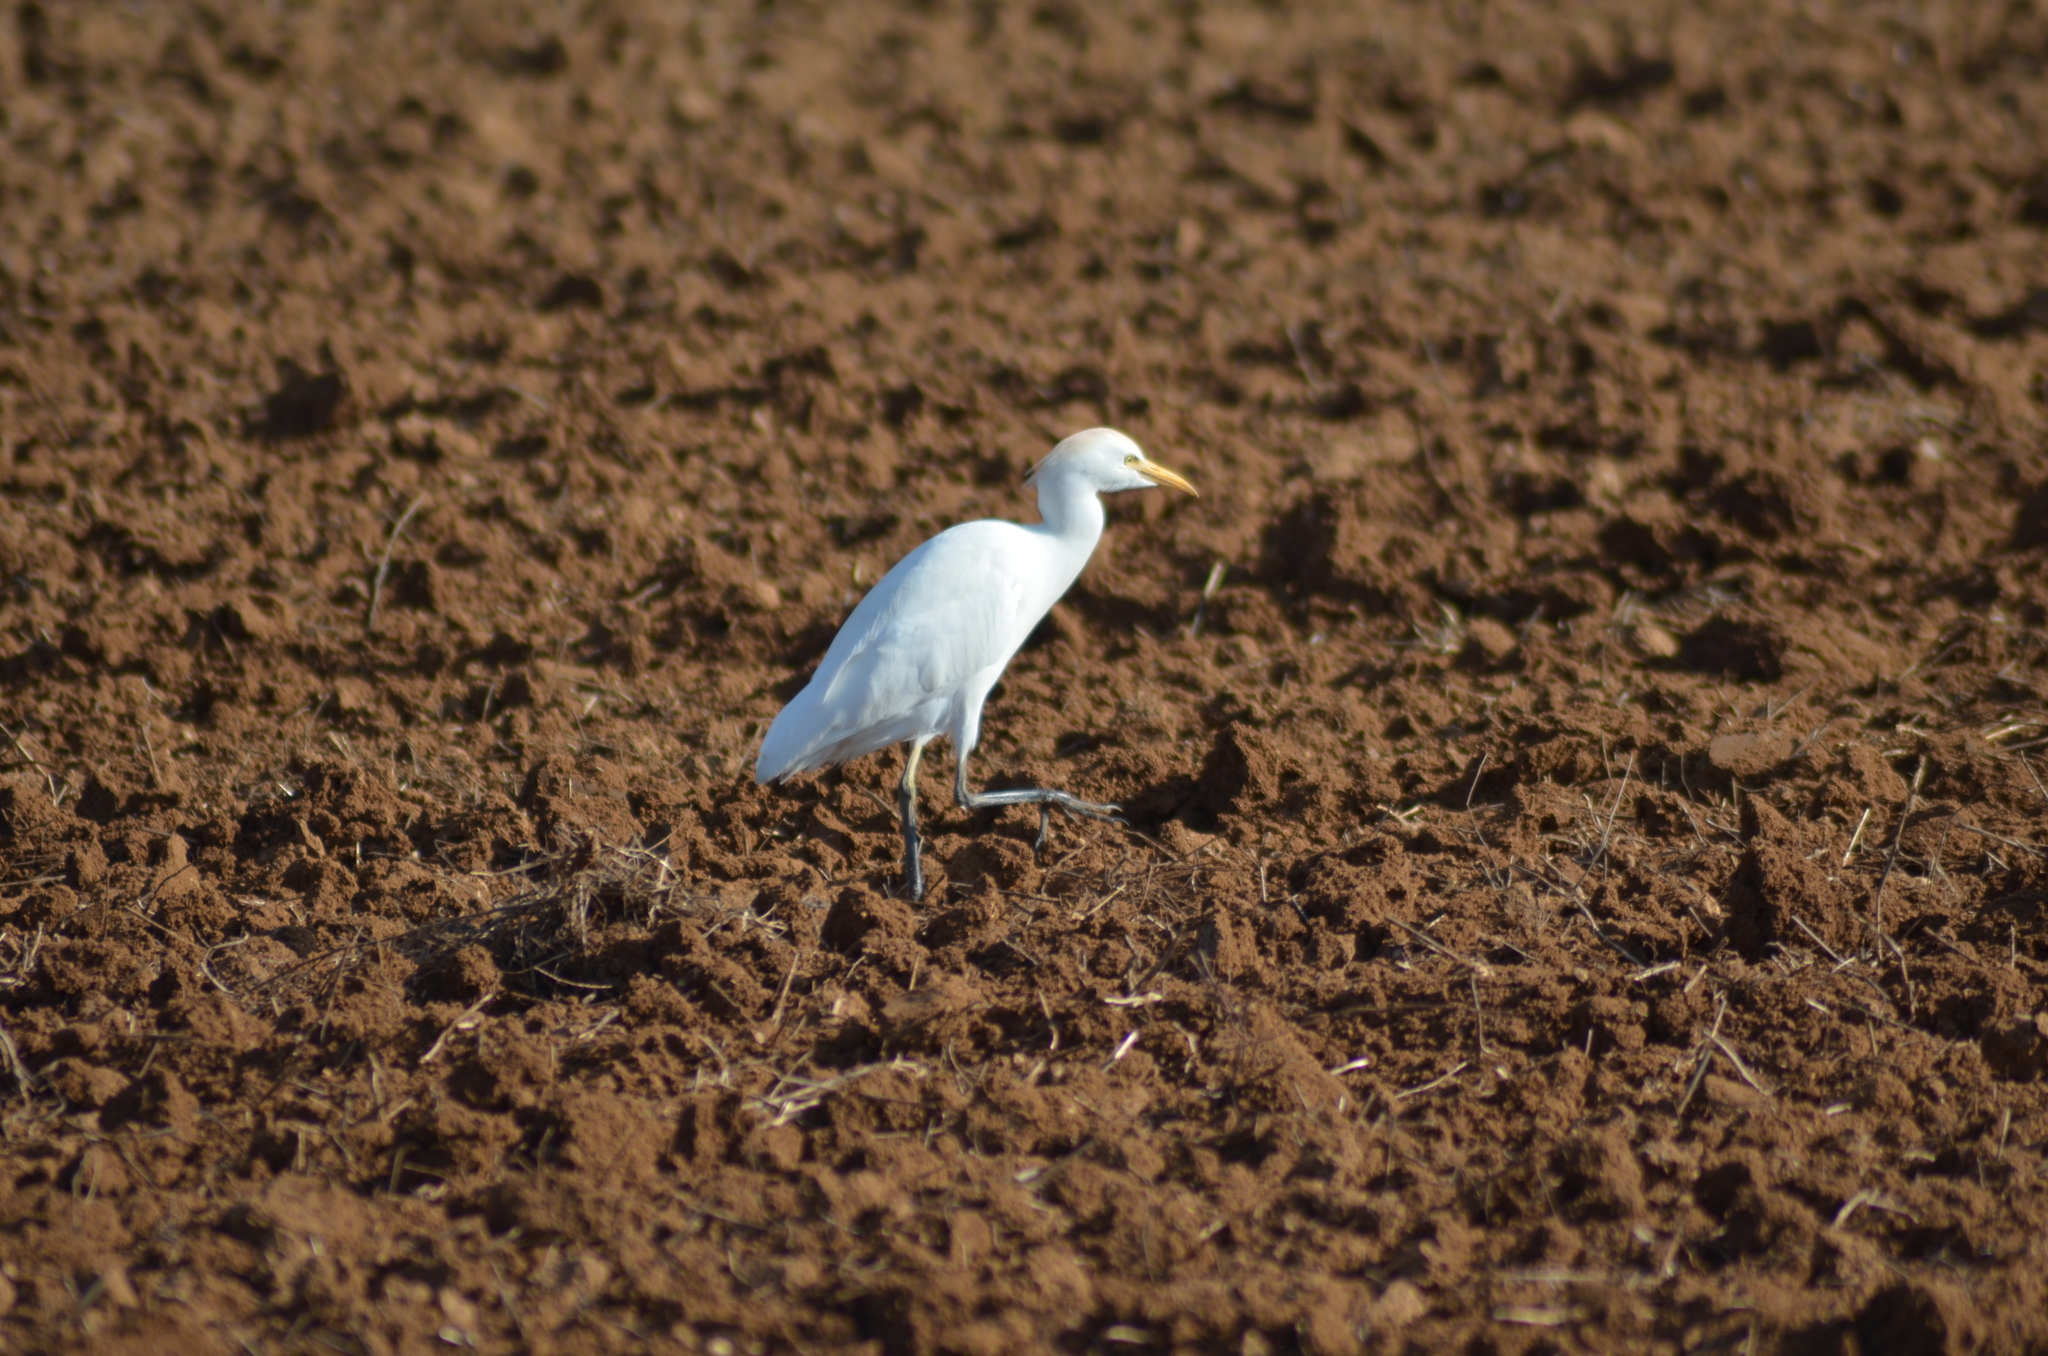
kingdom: Animalia
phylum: Chordata
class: Aves
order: Pelecaniformes
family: Ardeidae
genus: Bubulcus
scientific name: Bubulcus ibis
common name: Cattle egret
